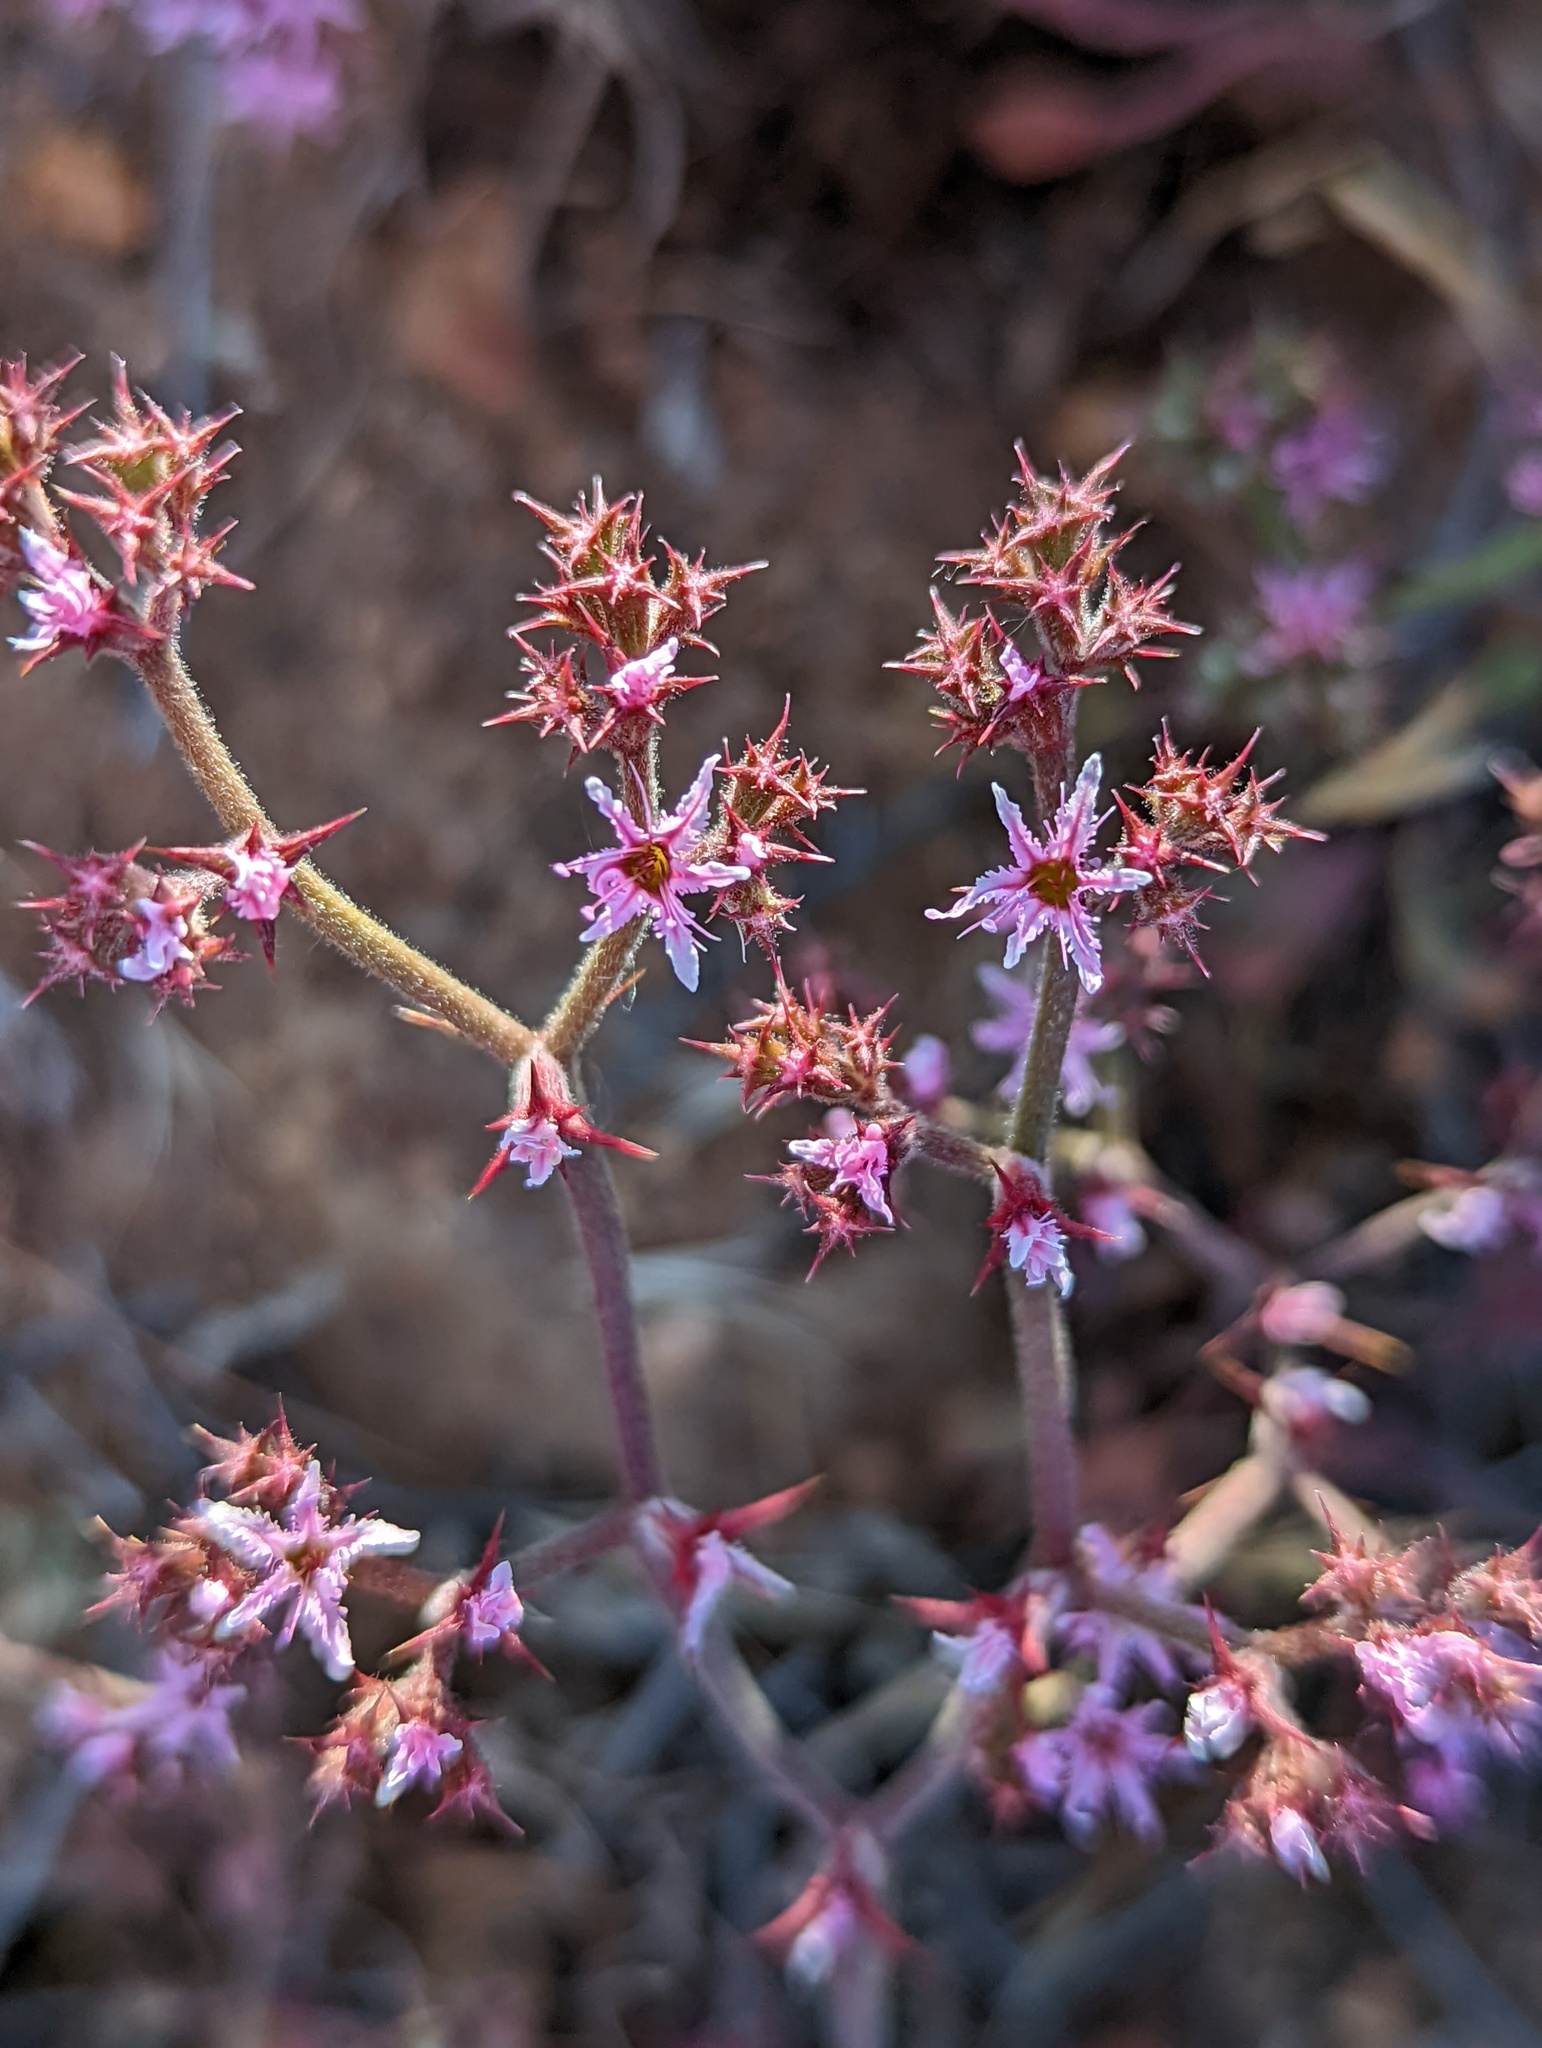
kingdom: Plantae
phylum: Tracheophyta
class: Magnoliopsida
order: Caryophyllales
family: Polygonaceae
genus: Chorizanthe
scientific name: Chorizanthe fimbriata
